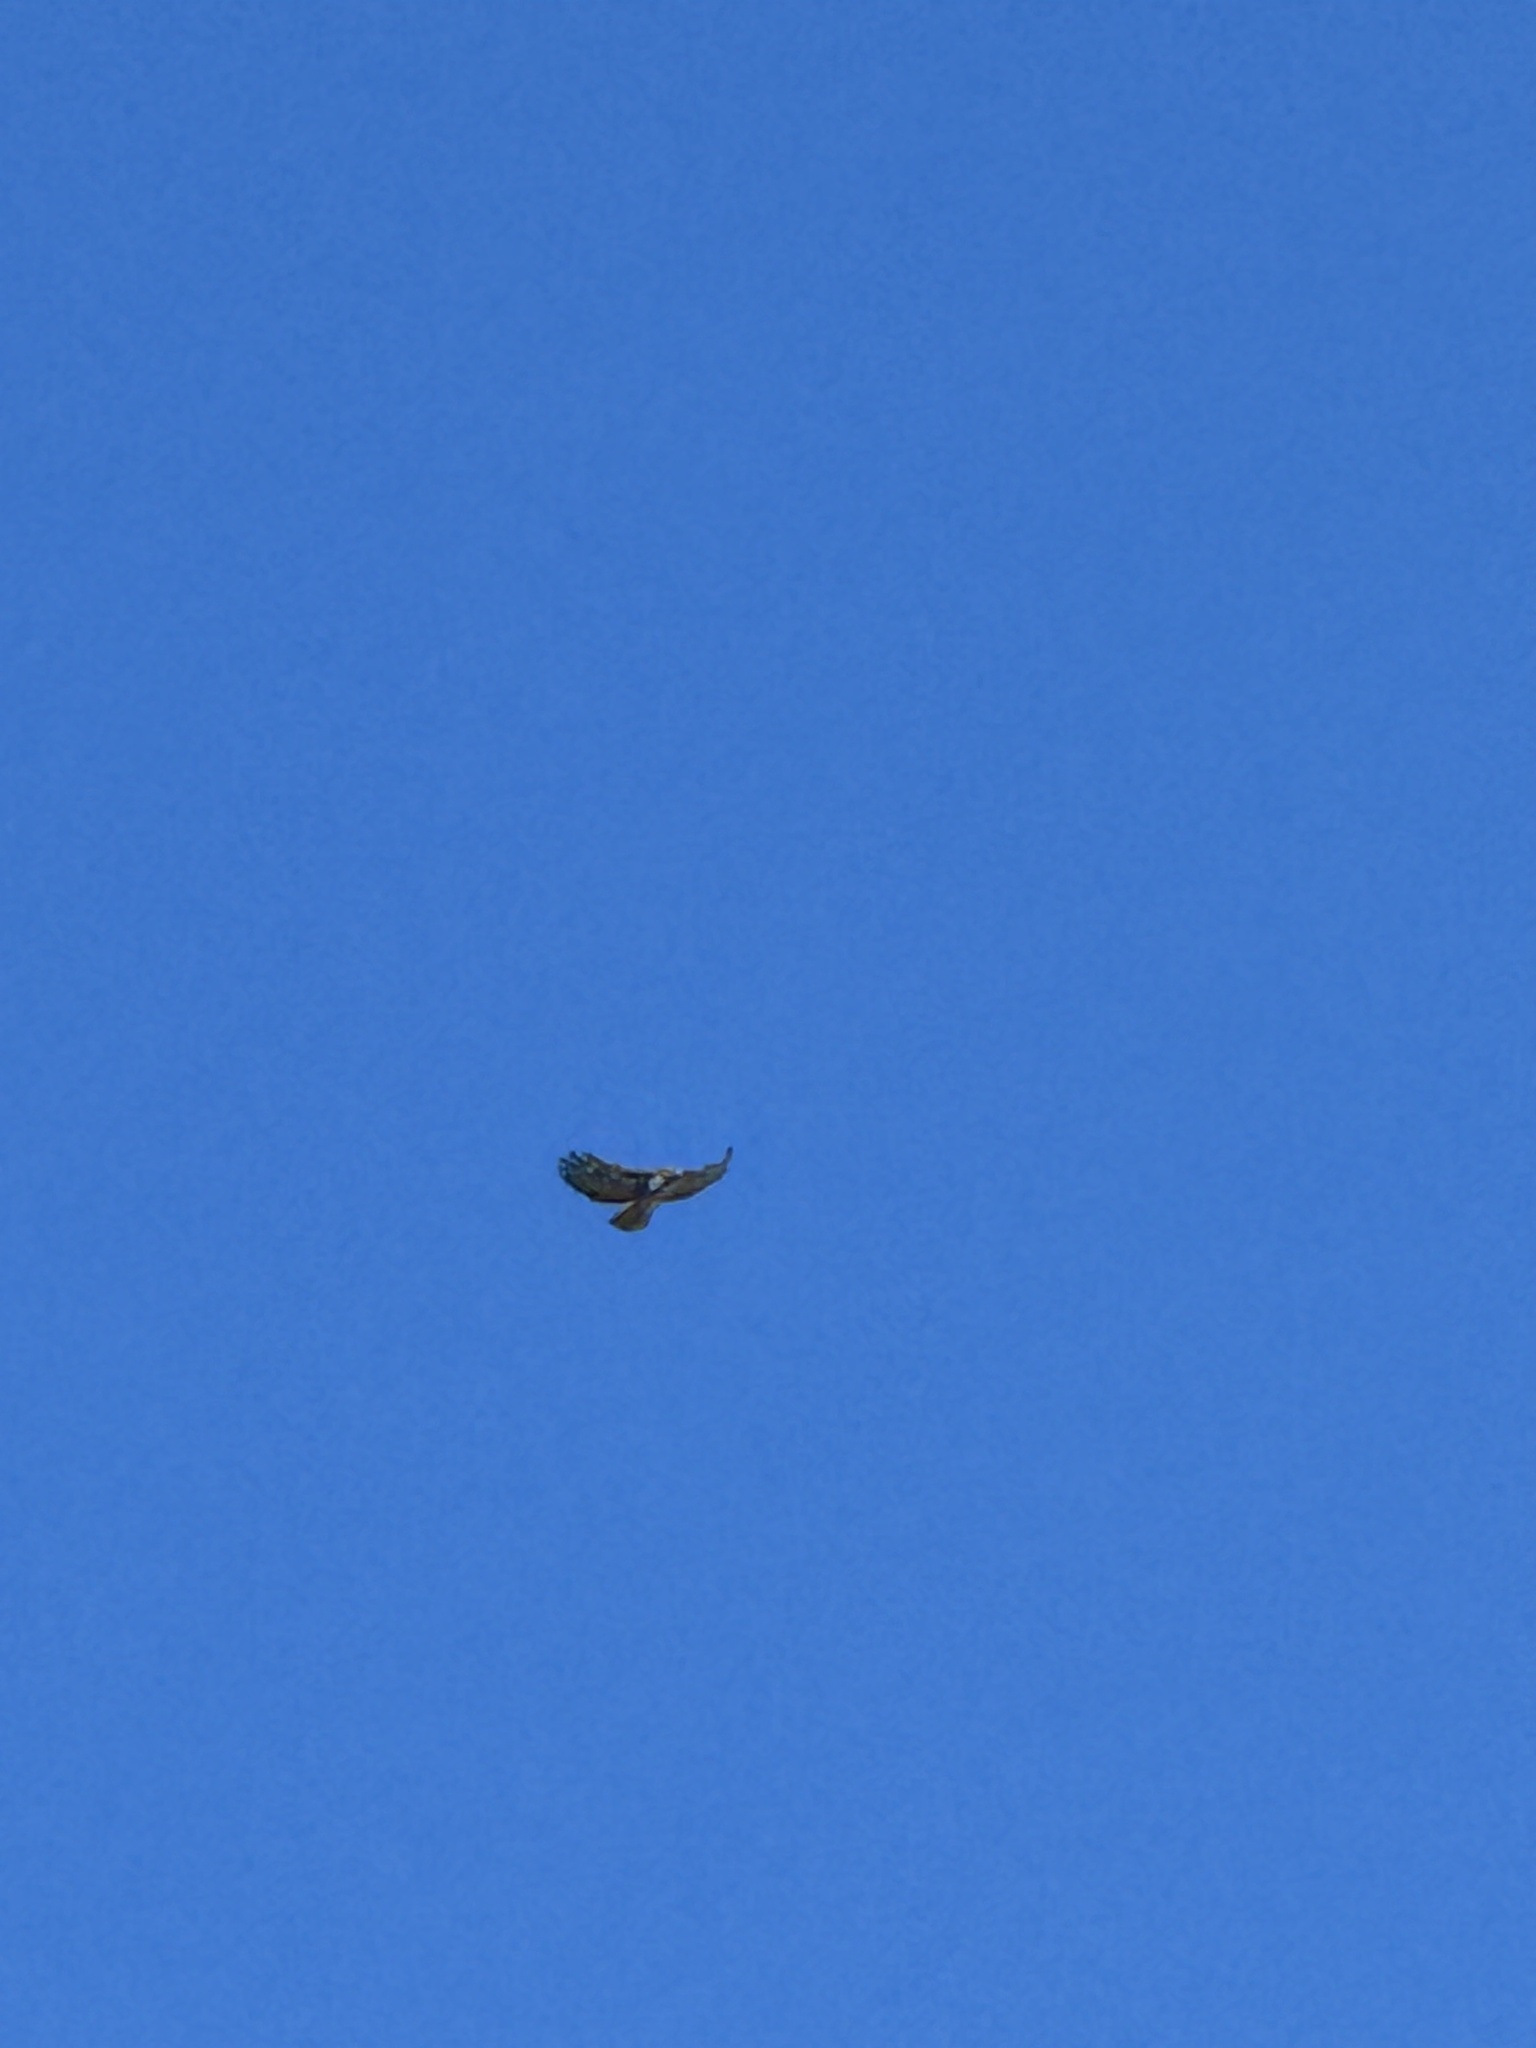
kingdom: Animalia
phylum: Chordata
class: Aves
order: Accipitriformes
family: Accipitridae
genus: Buteo
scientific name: Buteo jamaicensis
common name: Red-tailed hawk
